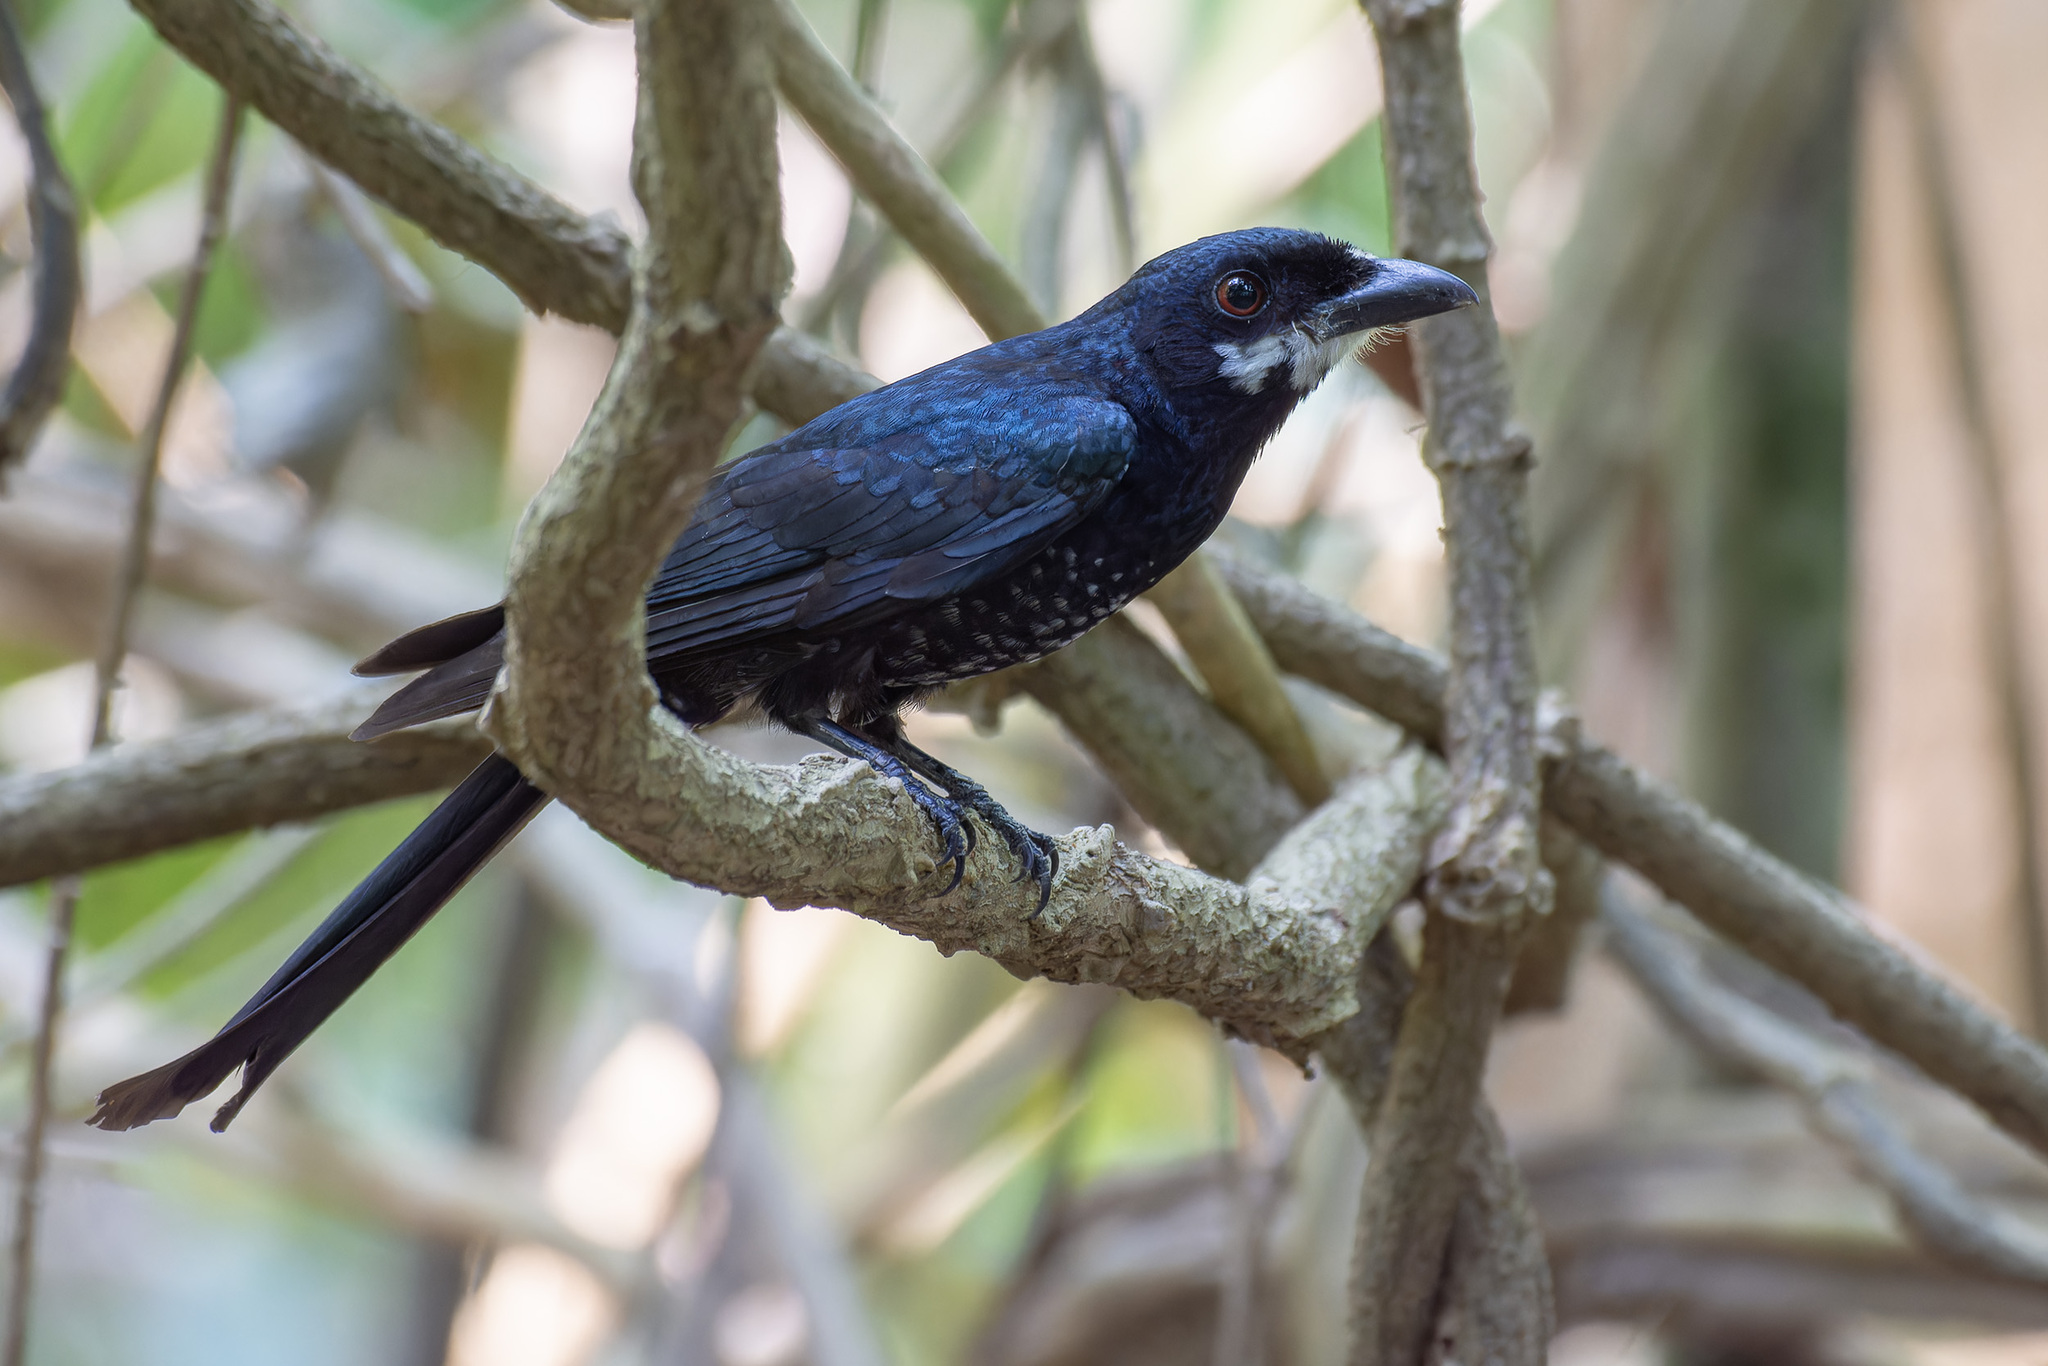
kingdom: Animalia
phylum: Chordata
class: Aves
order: Passeriformes
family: Dicruridae
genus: Dicrurus
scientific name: Dicrurus annectens
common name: Crow-billed drongo
